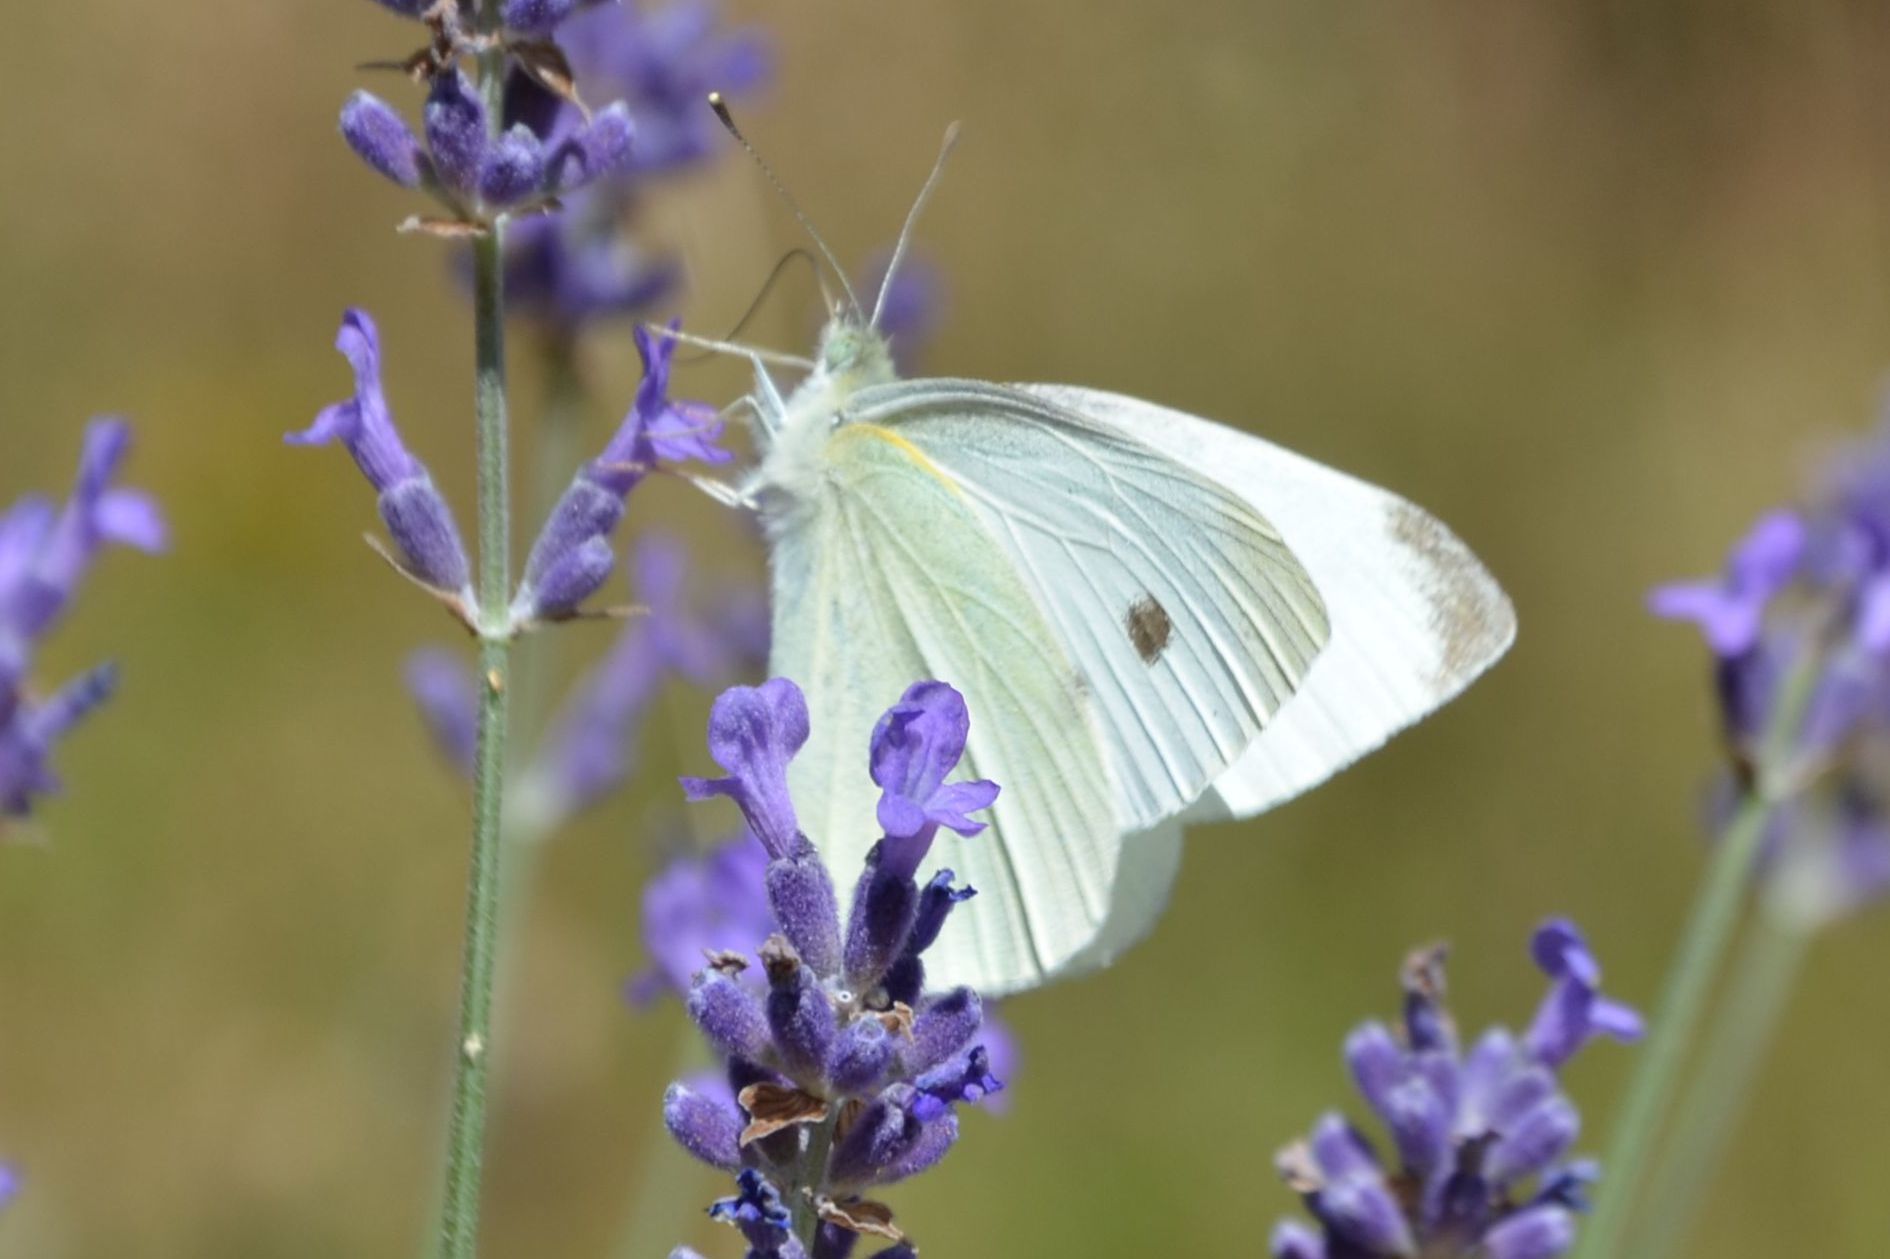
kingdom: Animalia
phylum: Arthropoda
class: Insecta
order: Lepidoptera
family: Pieridae
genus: Pieris
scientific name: Pieris rapae
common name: Small white
